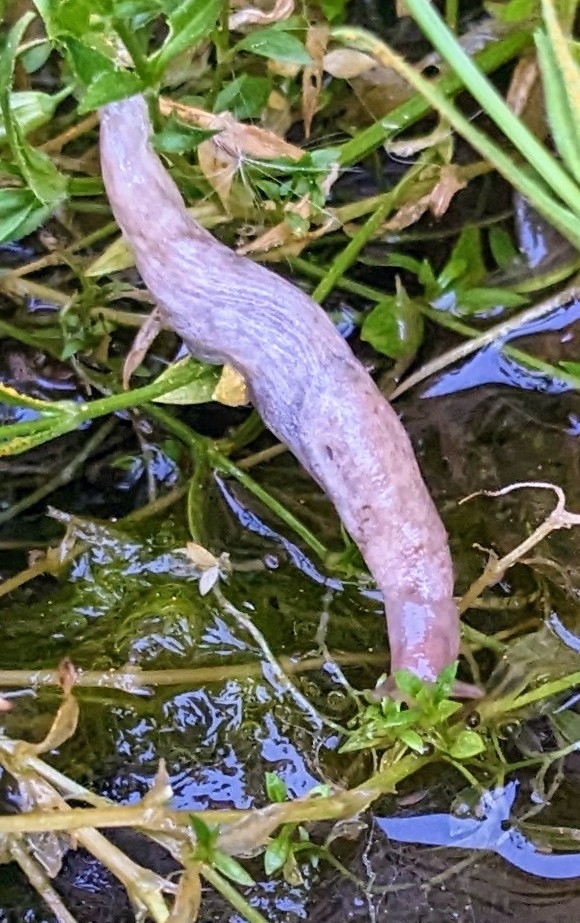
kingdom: Animalia
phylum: Mollusca
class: Gastropoda
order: Stylommatophora
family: Agriolimacidae
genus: Deroceras
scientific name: Deroceras reticulatum
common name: Gray field slug
